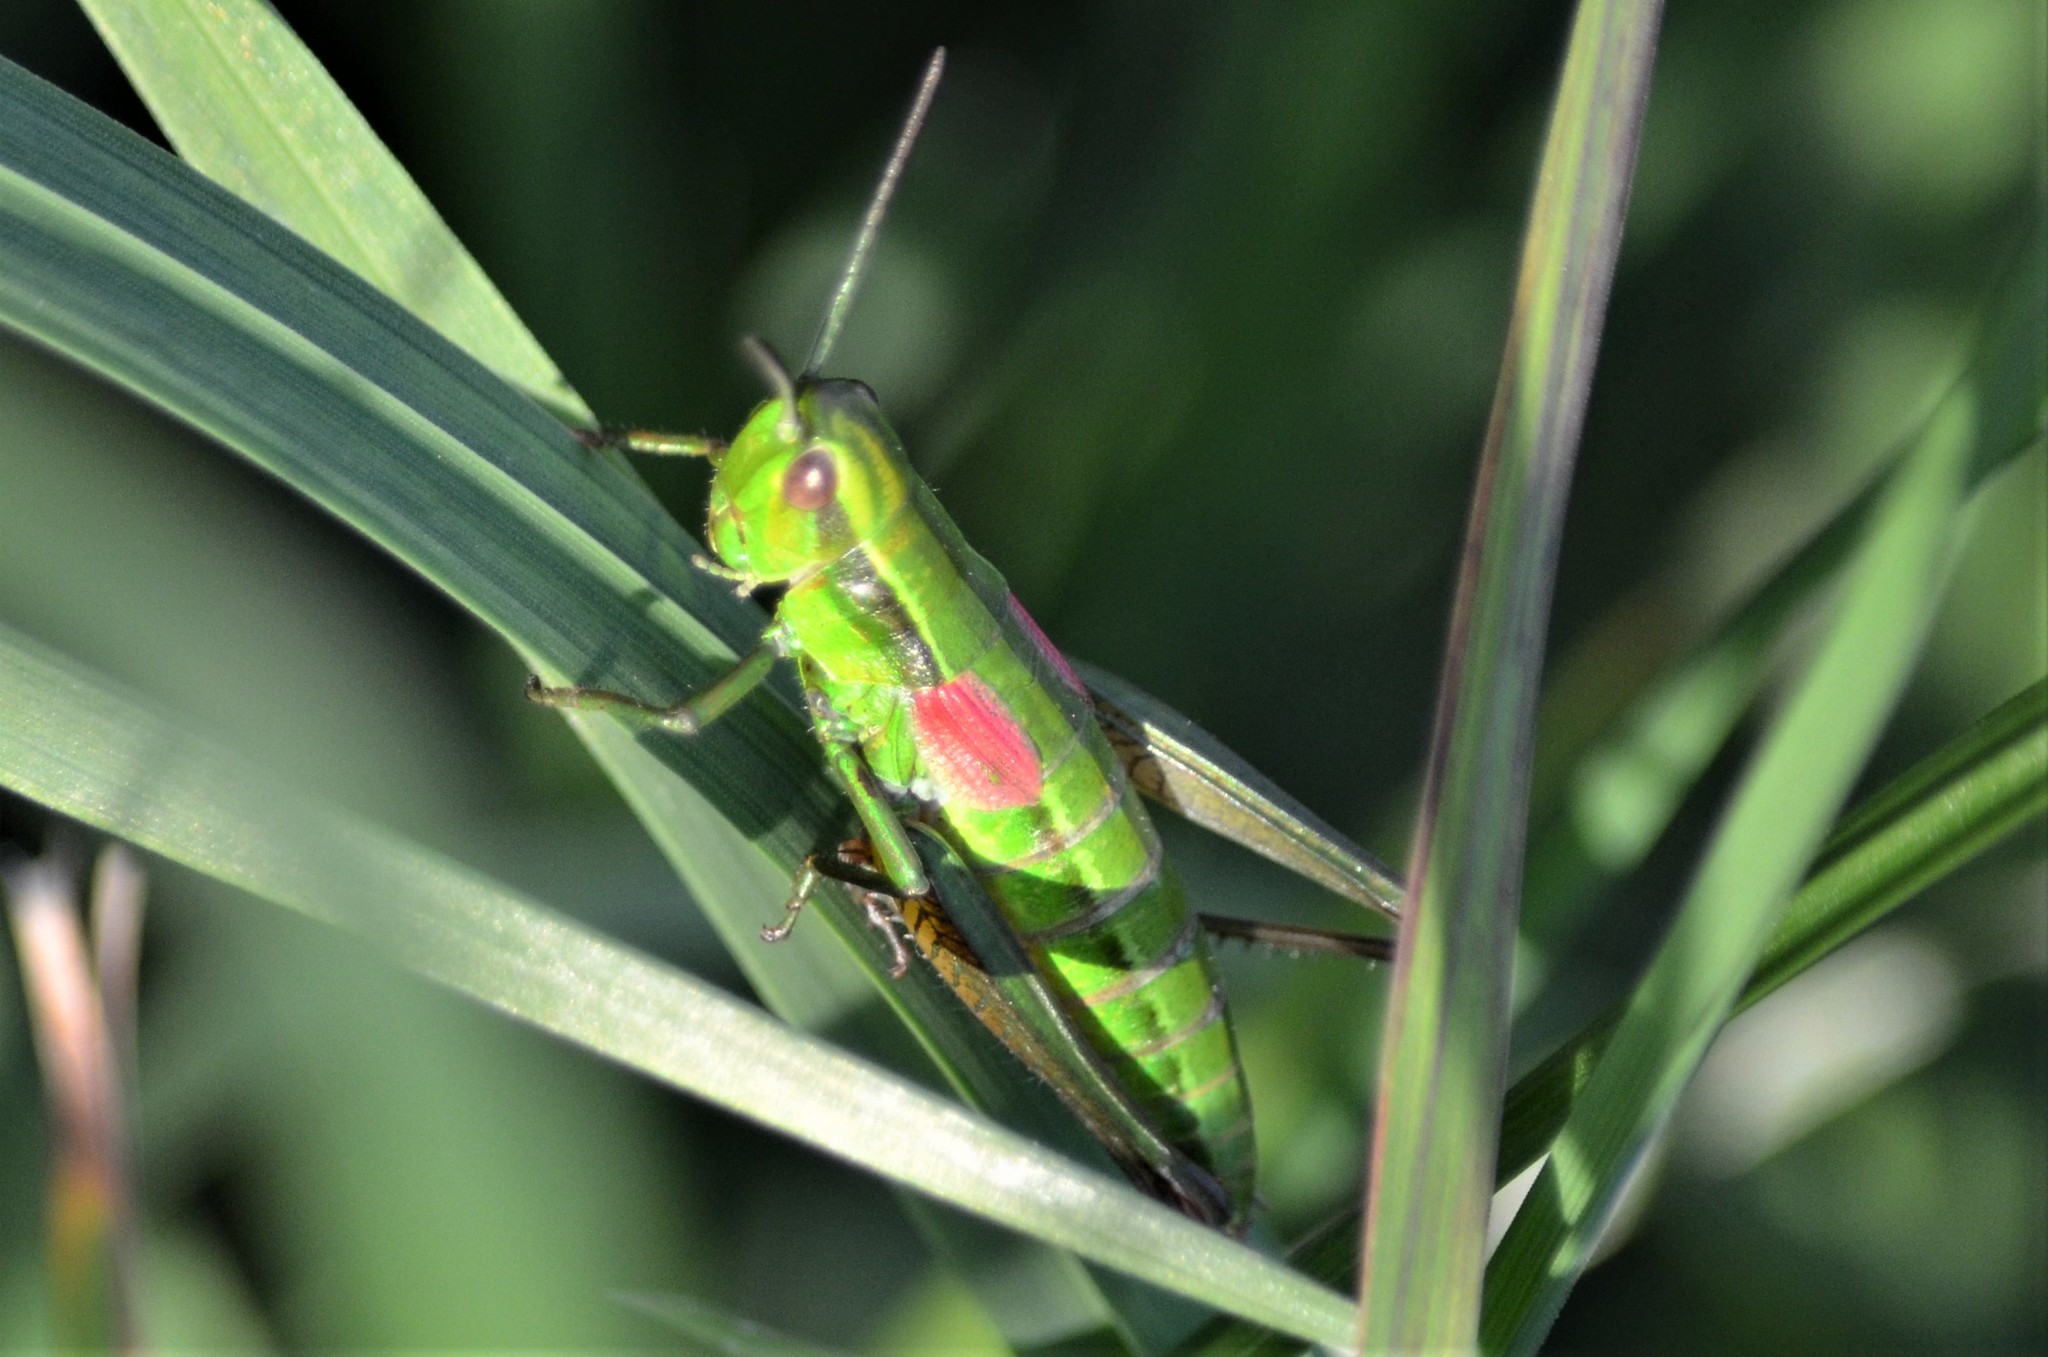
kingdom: Animalia
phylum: Arthropoda
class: Insecta
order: Orthoptera
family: Acrididae
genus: Euthystira
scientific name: Euthystira brachyptera
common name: Small gold grasshopper
